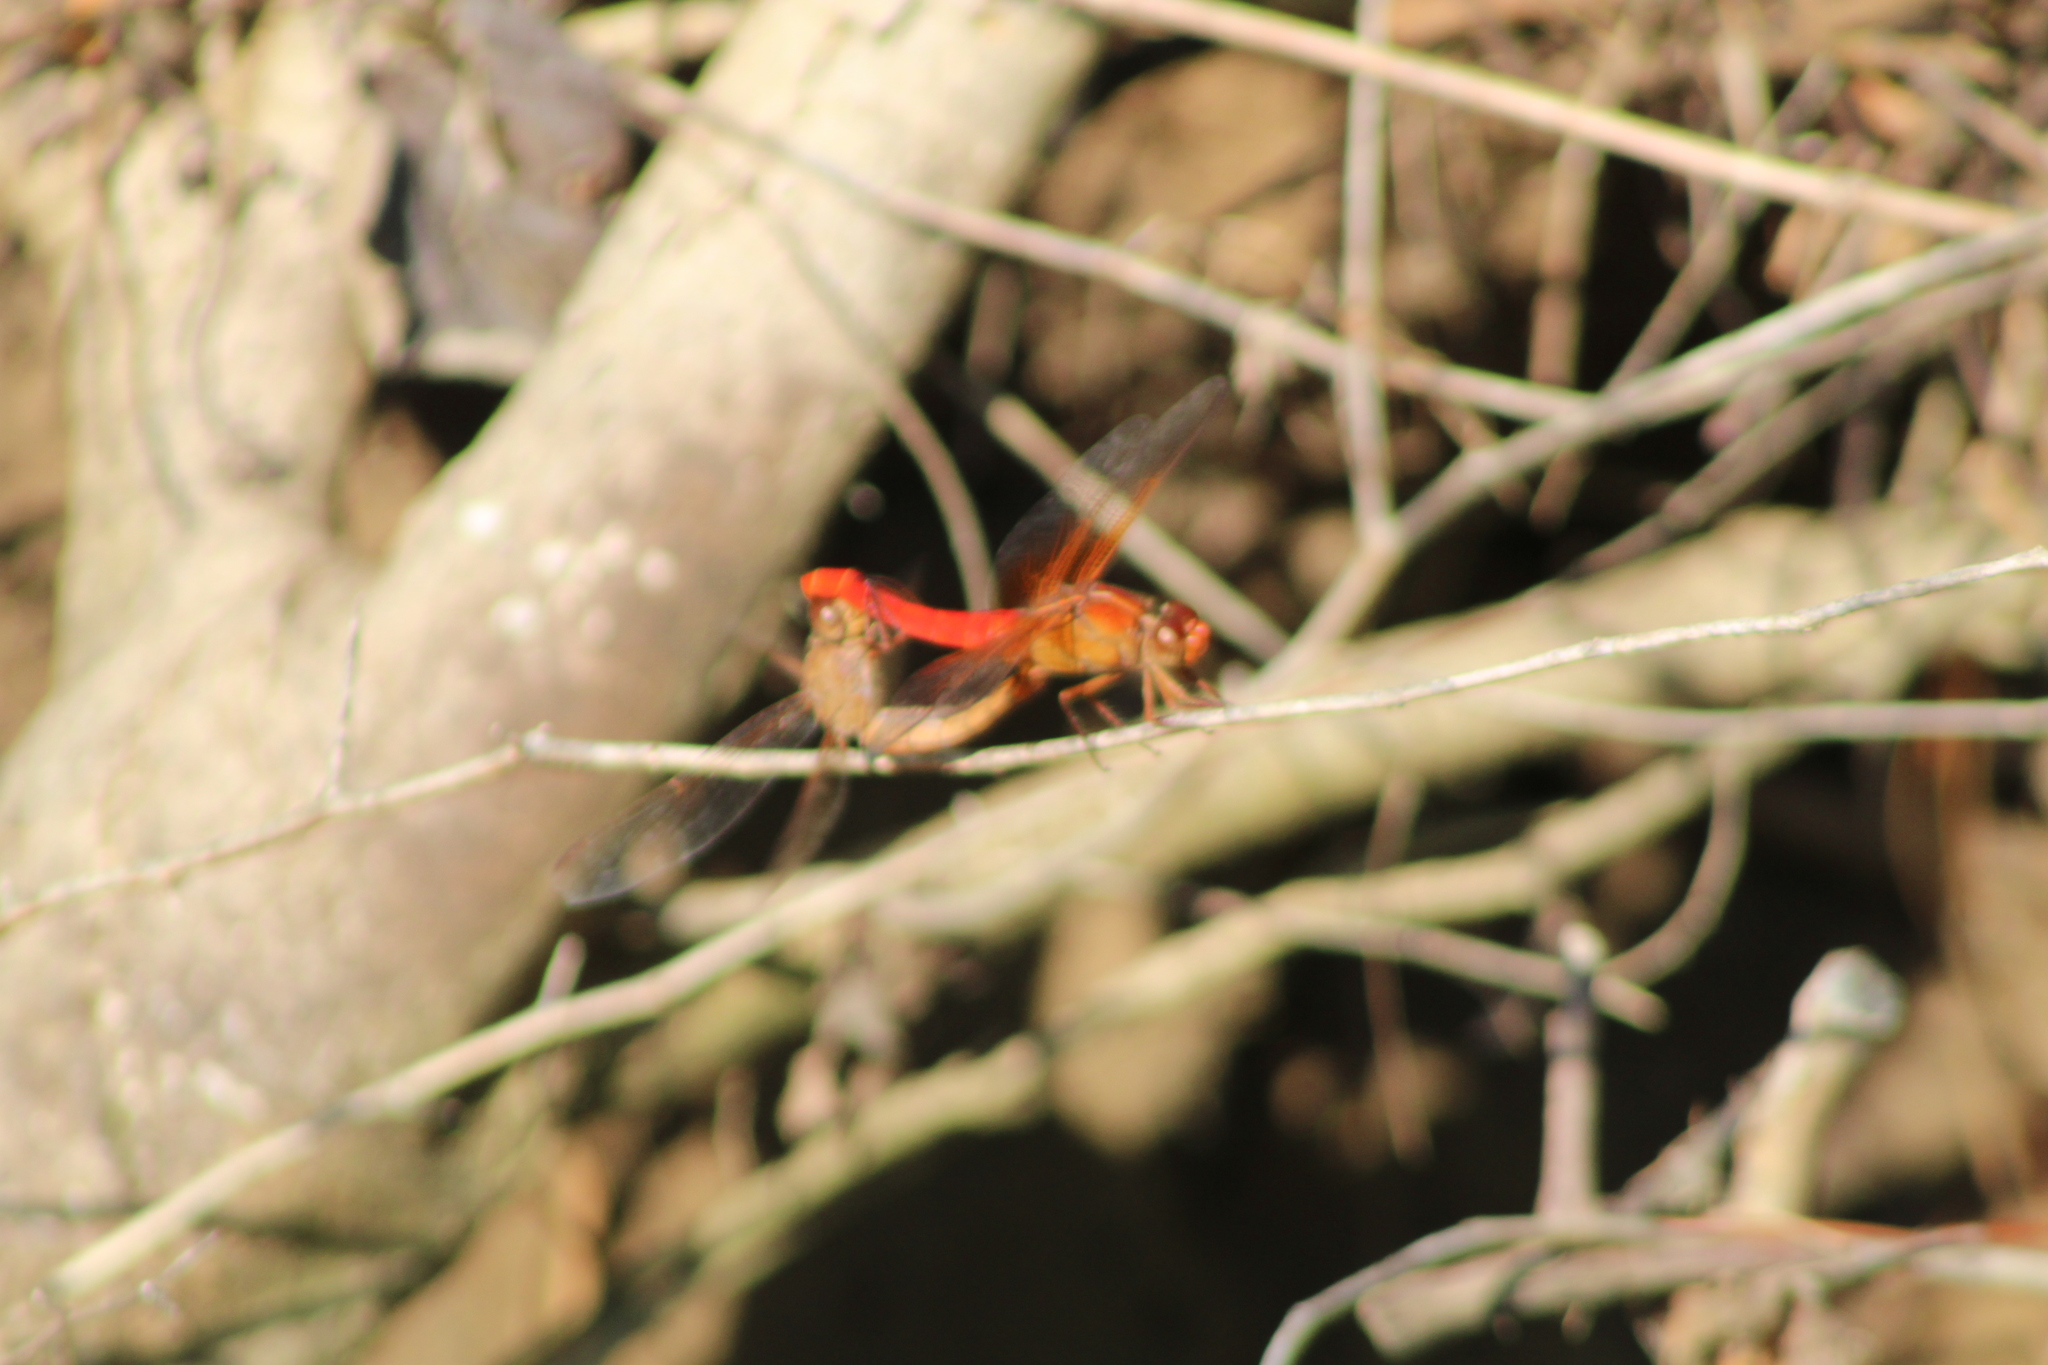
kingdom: Animalia
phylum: Arthropoda
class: Insecta
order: Odonata
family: Libellulidae
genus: Libellula
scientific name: Libellula croceipennis
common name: Neon skimmer
